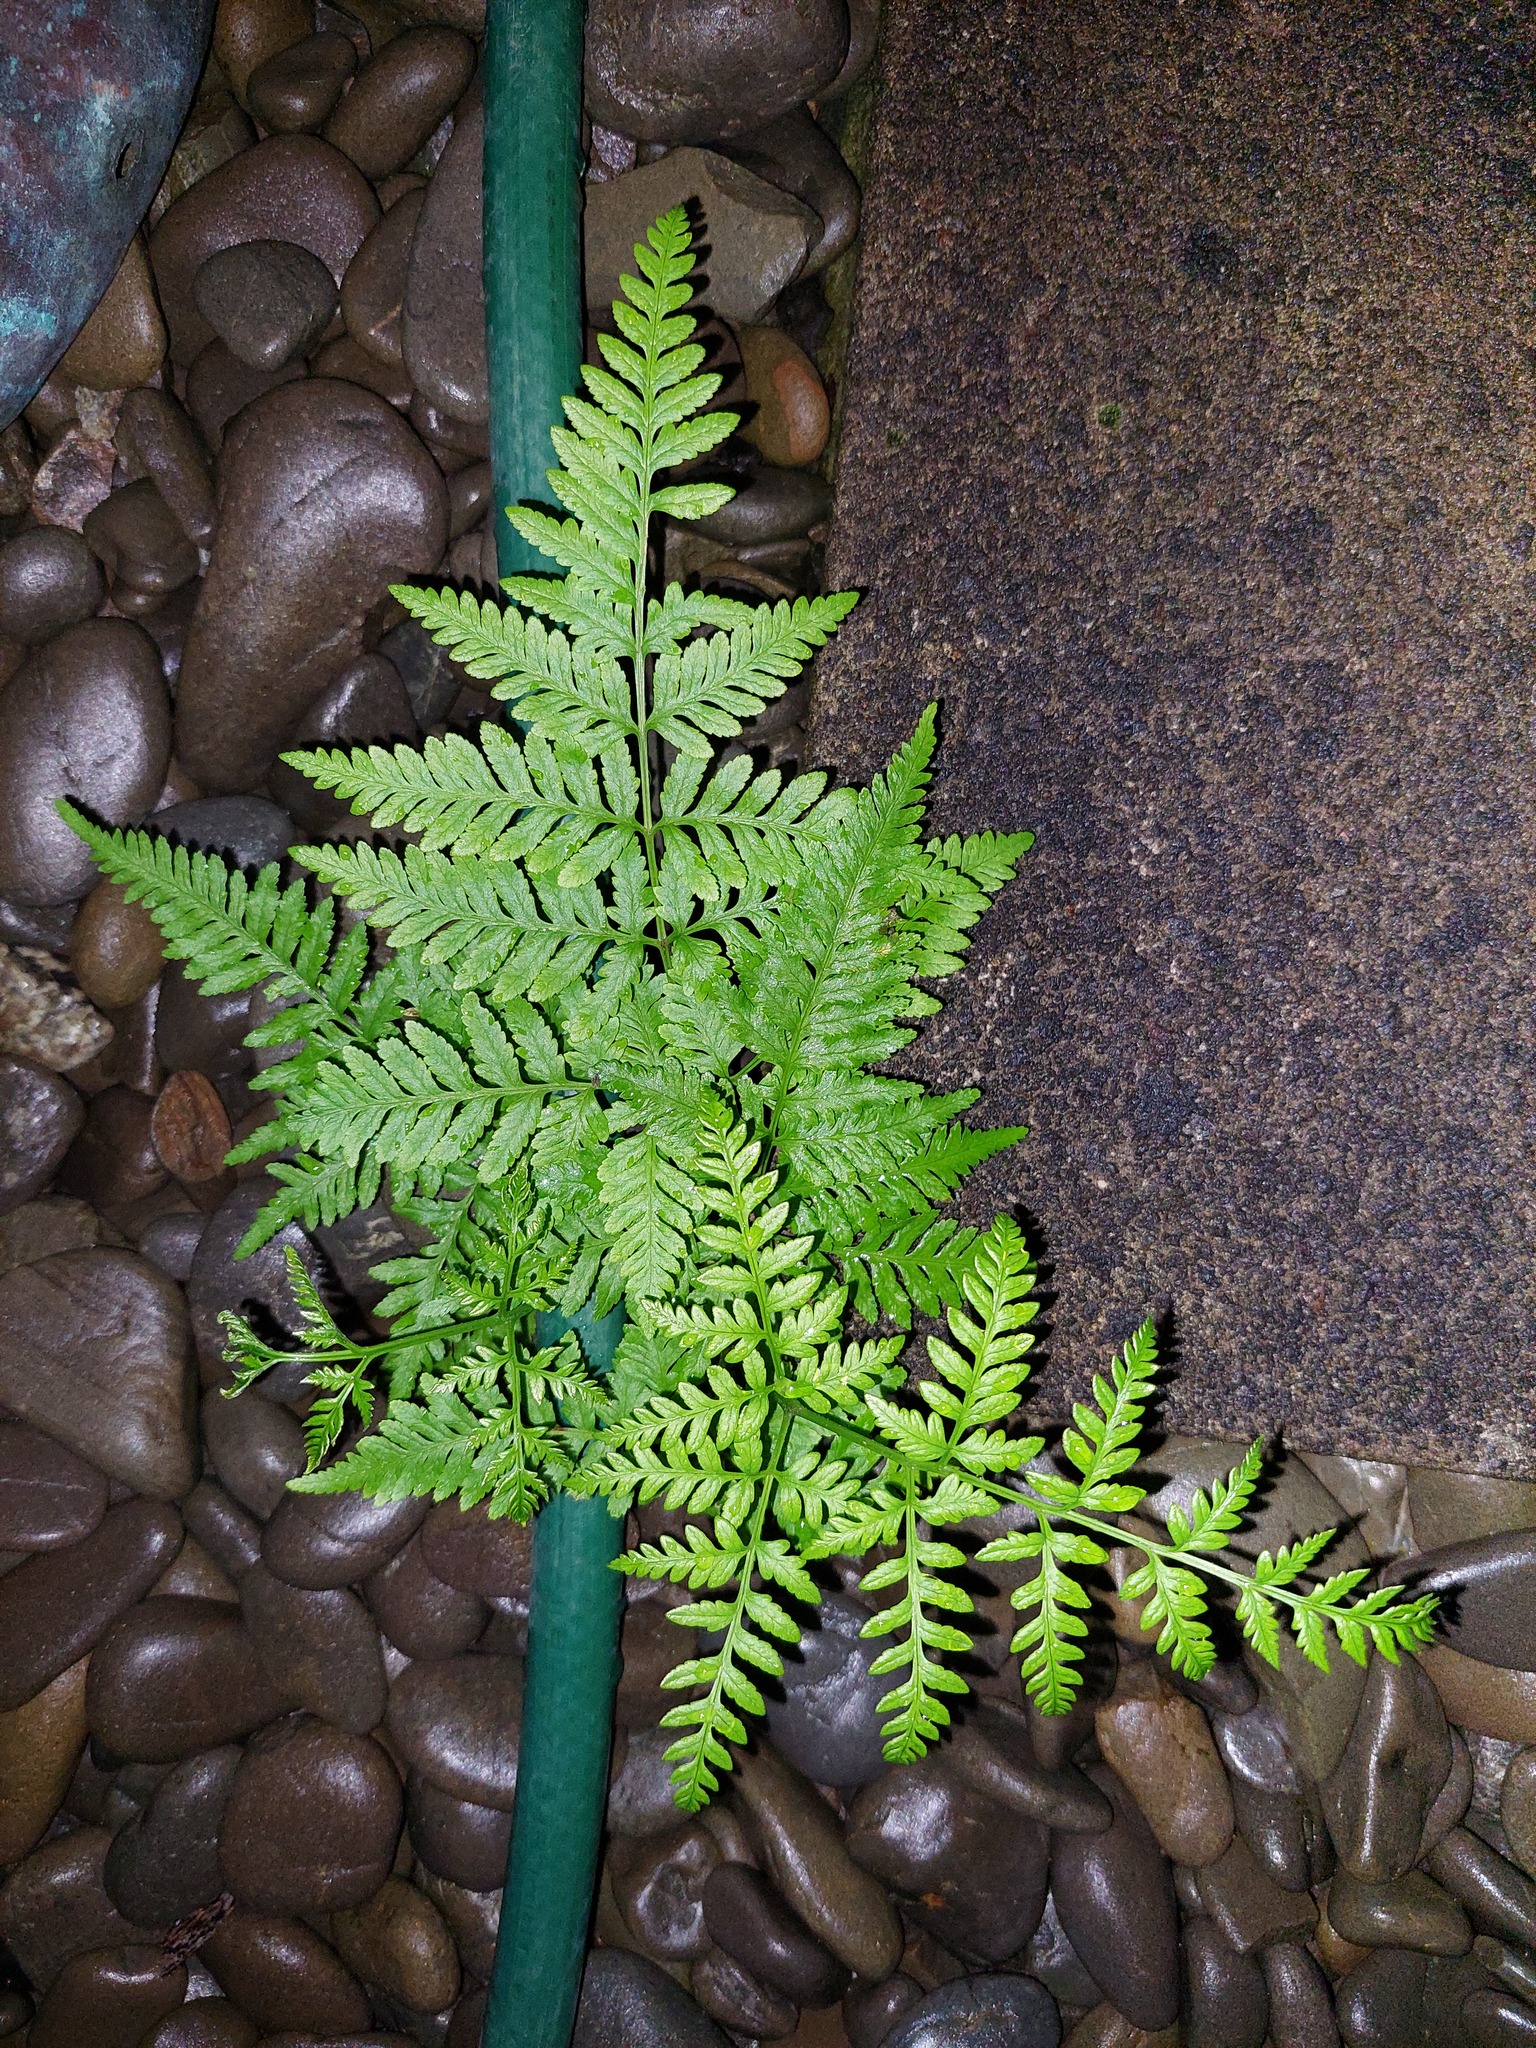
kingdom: Plantae
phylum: Tracheophyta
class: Polypodiopsida
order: Polypodiales
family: Pteridaceae
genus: Pteris
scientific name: Pteris tremula
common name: Australian brake
